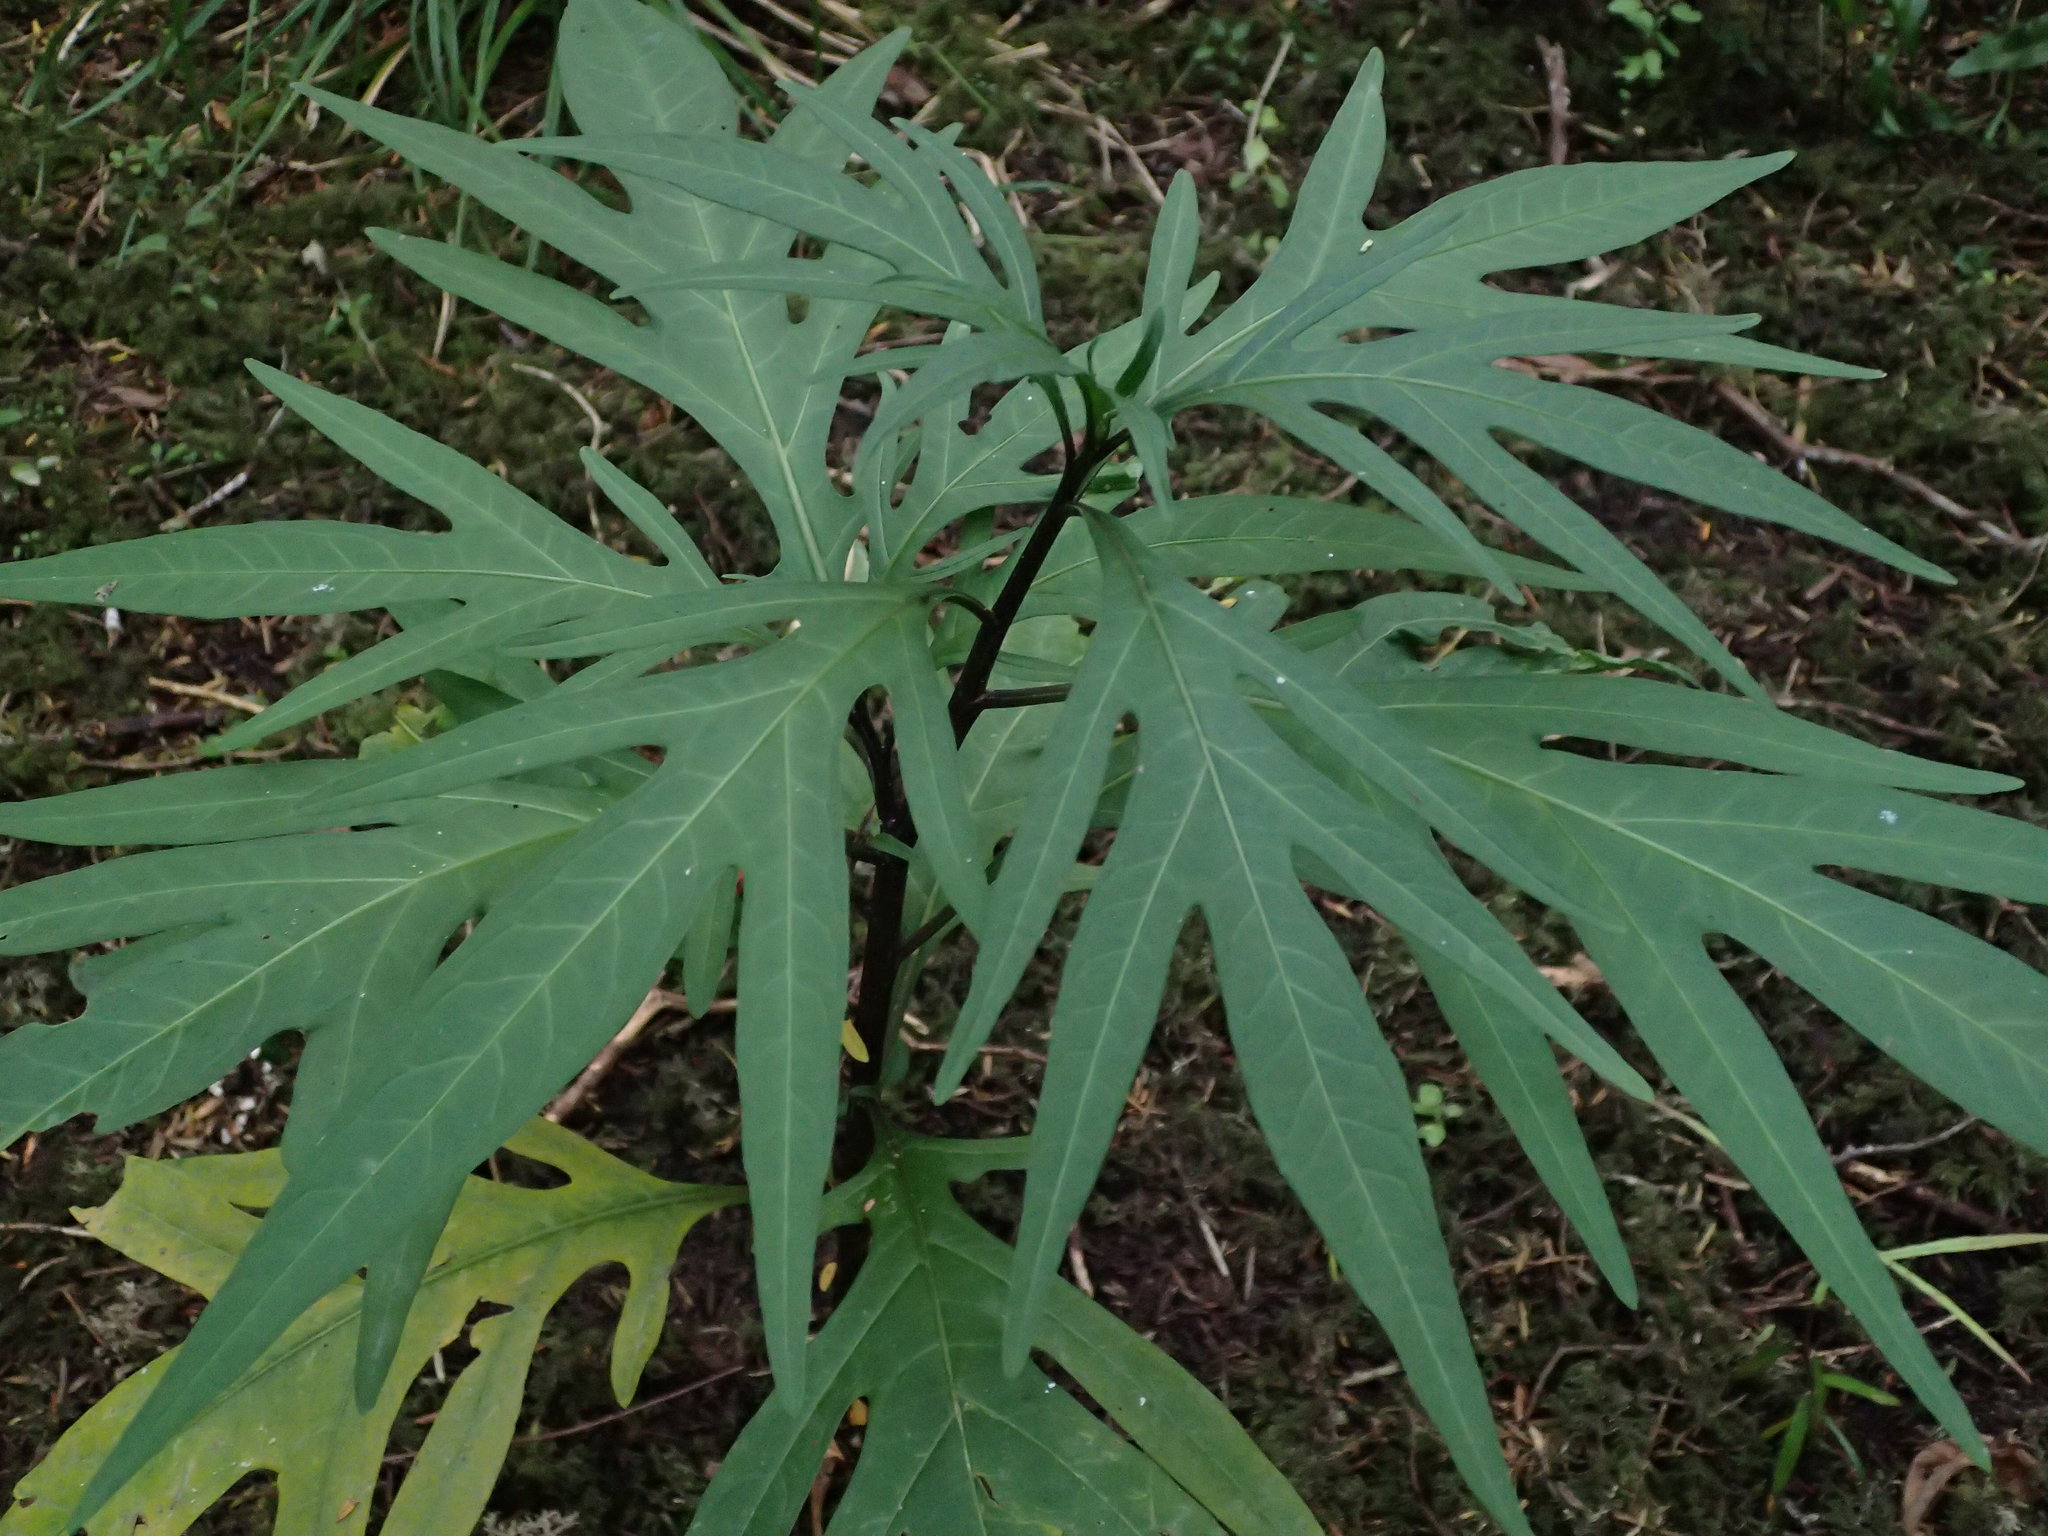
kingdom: Plantae
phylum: Tracheophyta
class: Magnoliopsida
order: Solanales
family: Solanaceae
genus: Solanum
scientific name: Solanum laciniatum
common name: Kangaroo-apple
